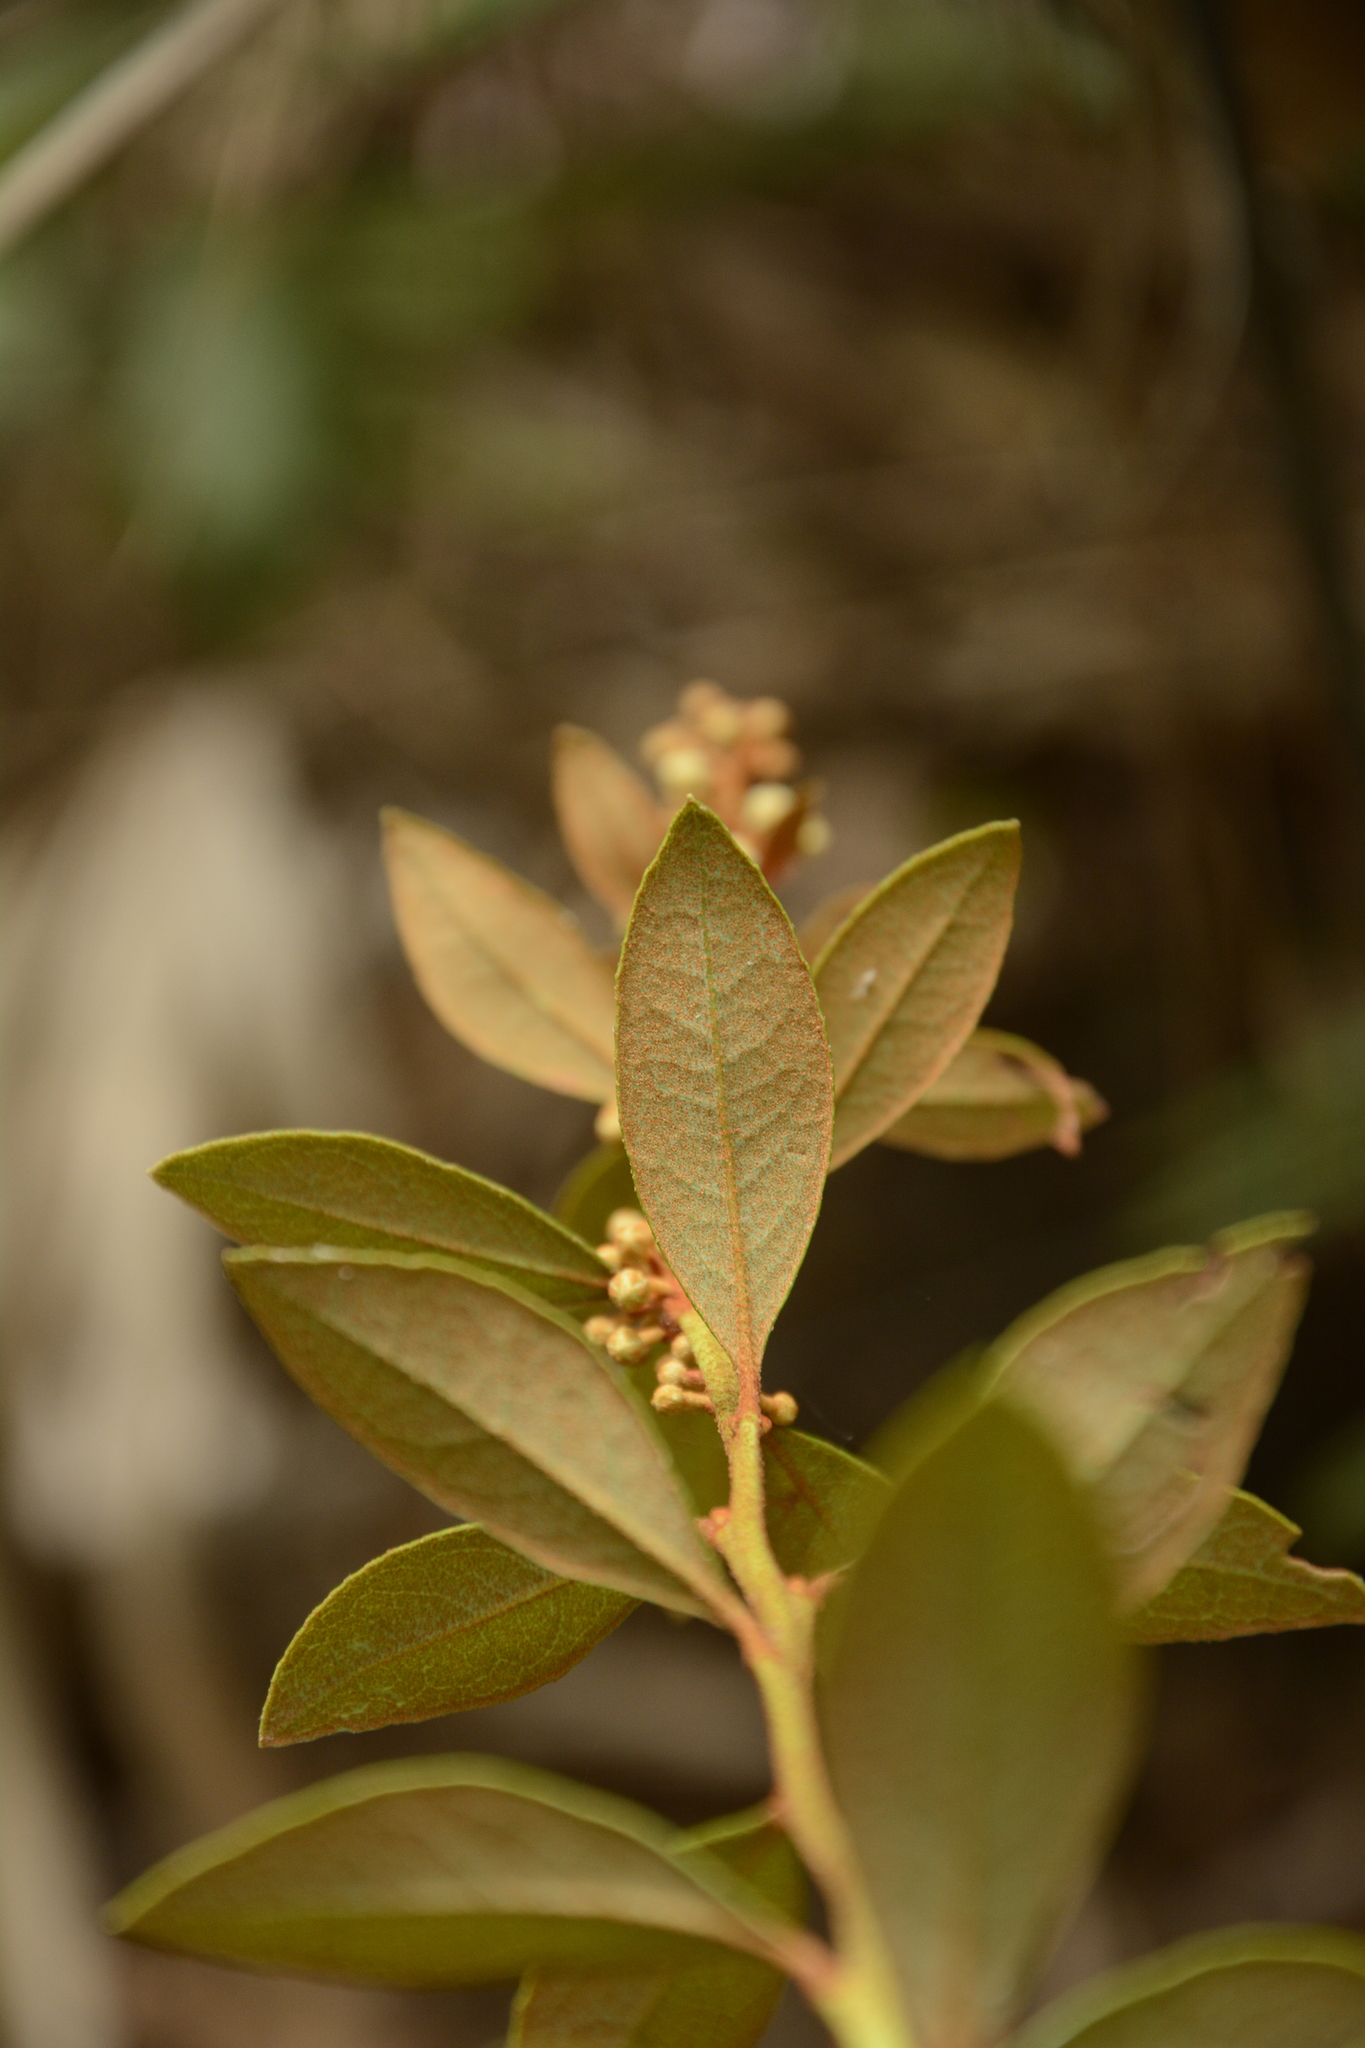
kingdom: Plantae
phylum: Tracheophyta
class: Magnoliopsida
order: Ericales
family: Ericaceae
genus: Lyonia
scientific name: Lyonia ferruginea
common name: Rusty lyonia
